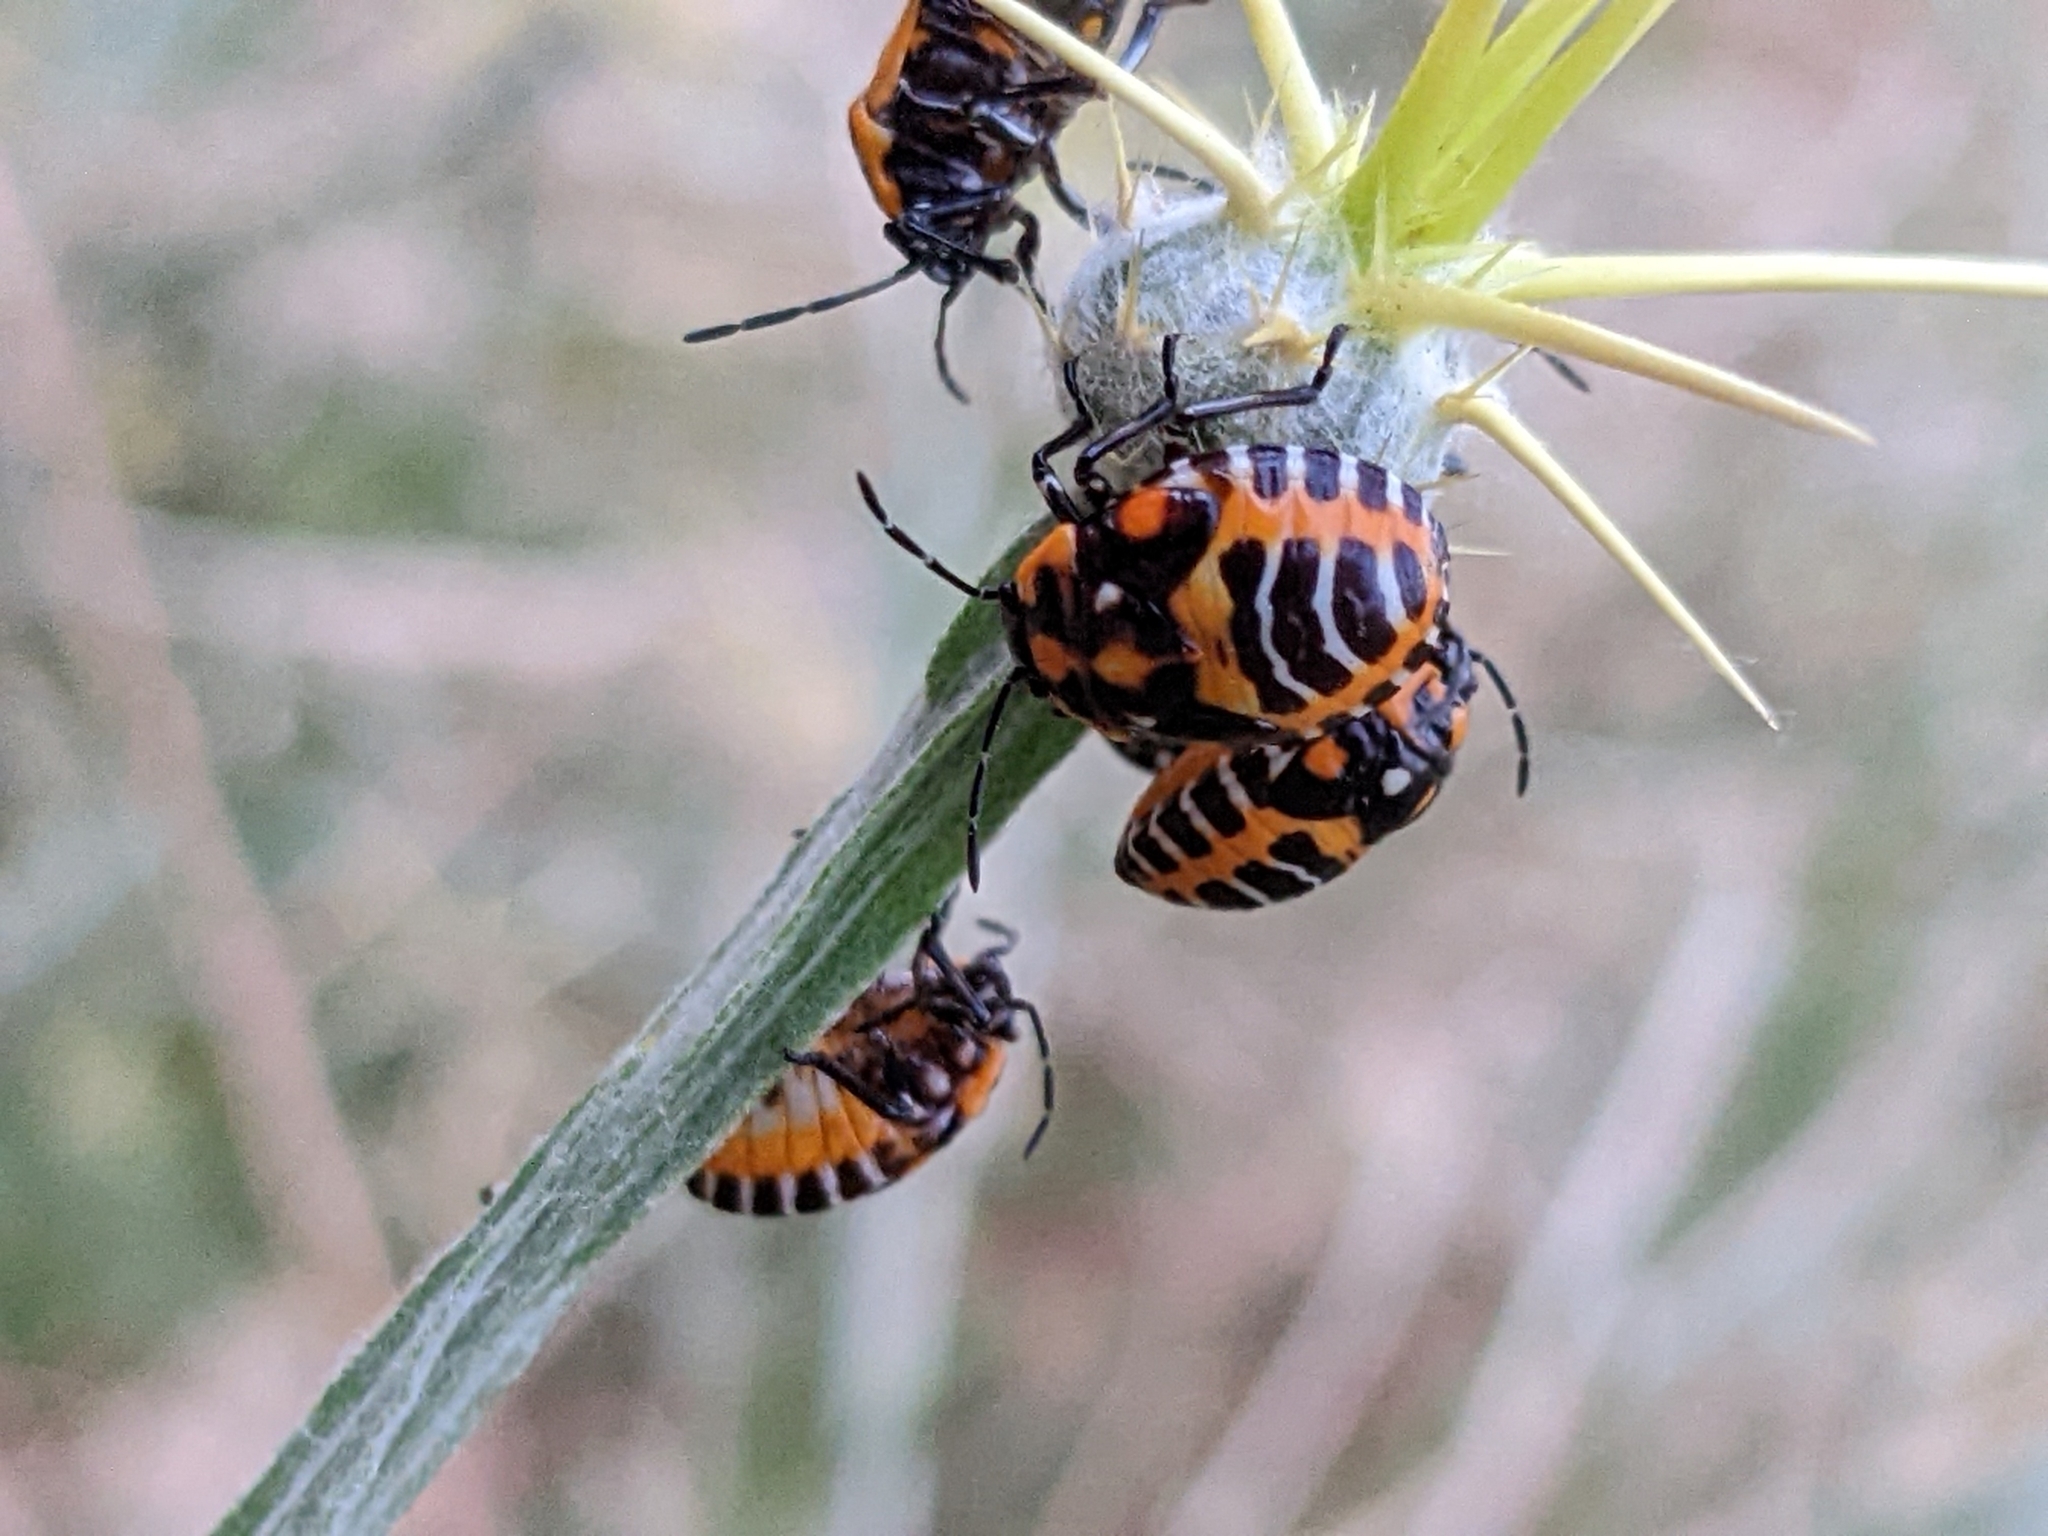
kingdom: Animalia
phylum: Arthropoda
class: Insecta
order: Hemiptera
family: Pentatomidae
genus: Murgantia
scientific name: Murgantia histrionica
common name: Harlequin bug
